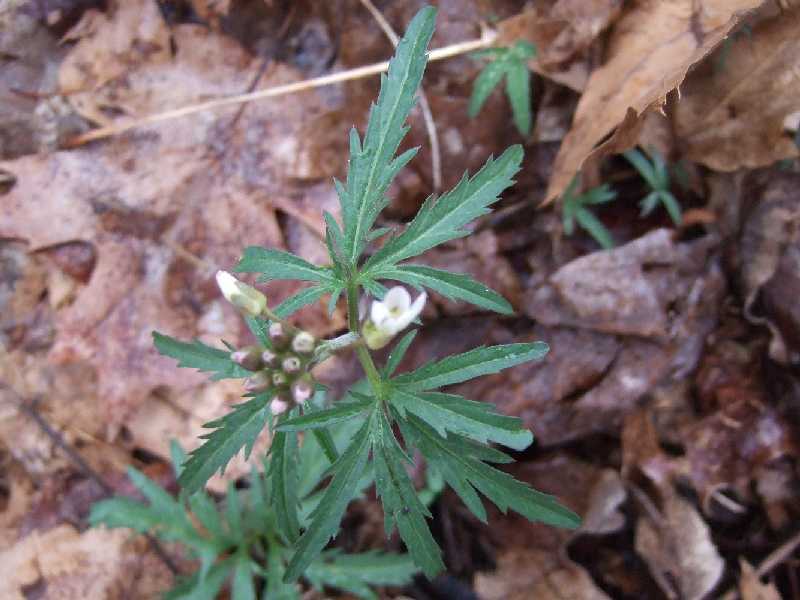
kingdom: Plantae
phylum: Tracheophyta
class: Magnoliopsida
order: Brassicales
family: Brassicaceae
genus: Cardamine
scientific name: Cardamine concatenata
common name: Cut-leaf toothcup
